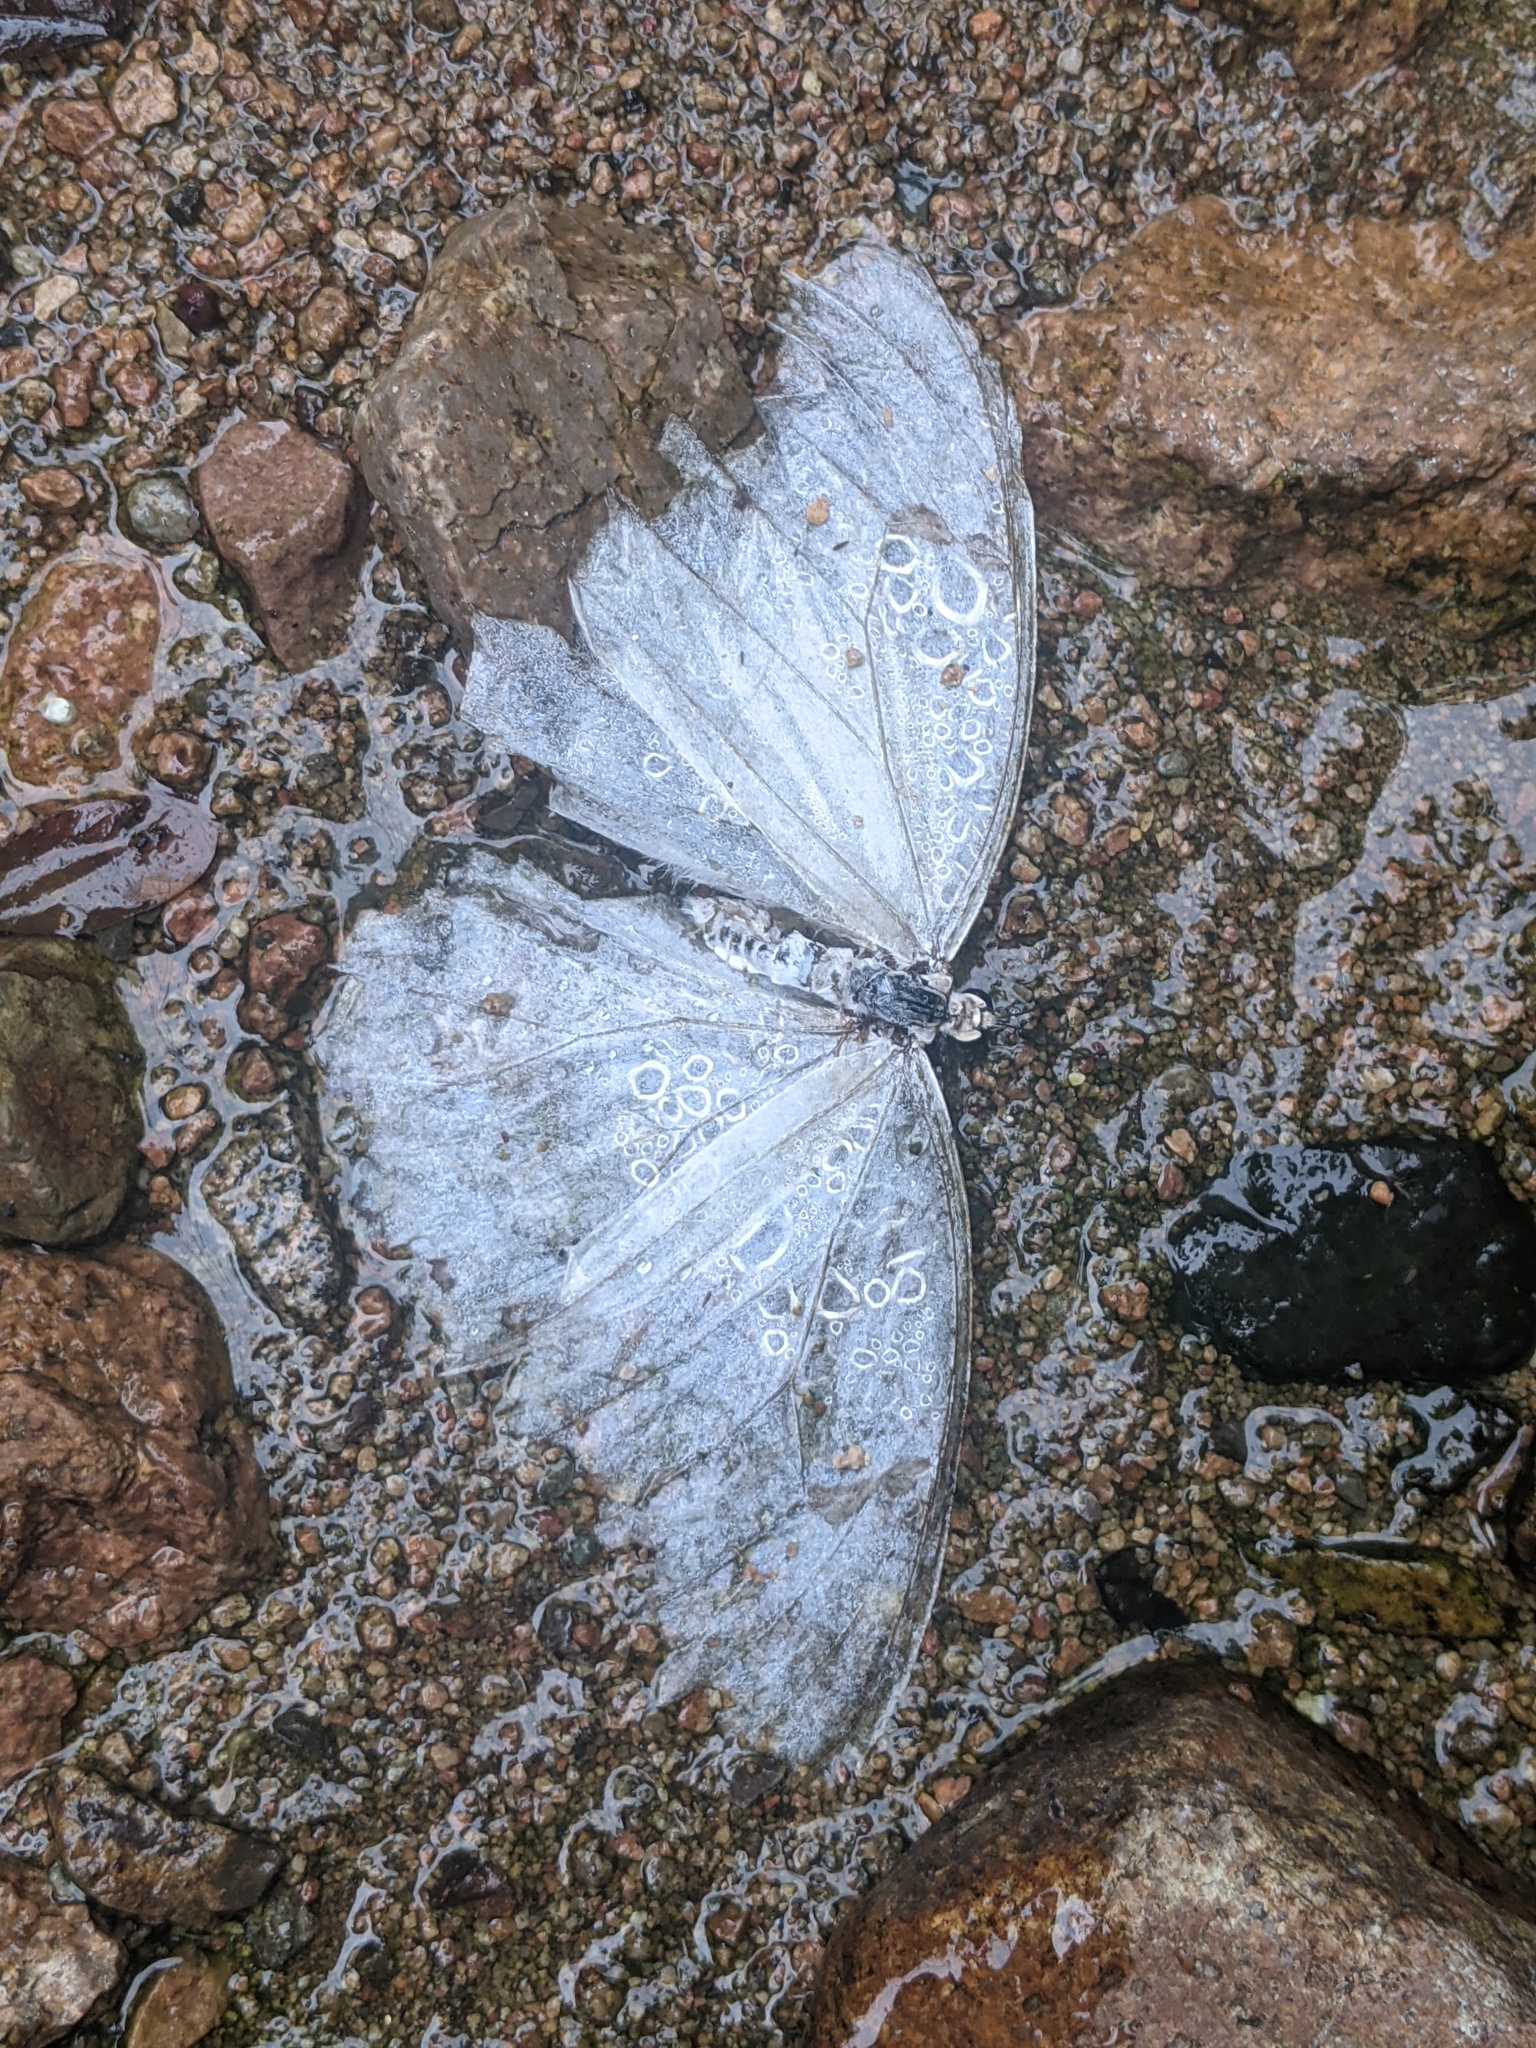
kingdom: Animalia
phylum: Arthropoda
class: Insecta
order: Lepidoptera
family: Nymphalidae
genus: Morpho
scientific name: Morpho polyphemus
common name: White morpho
